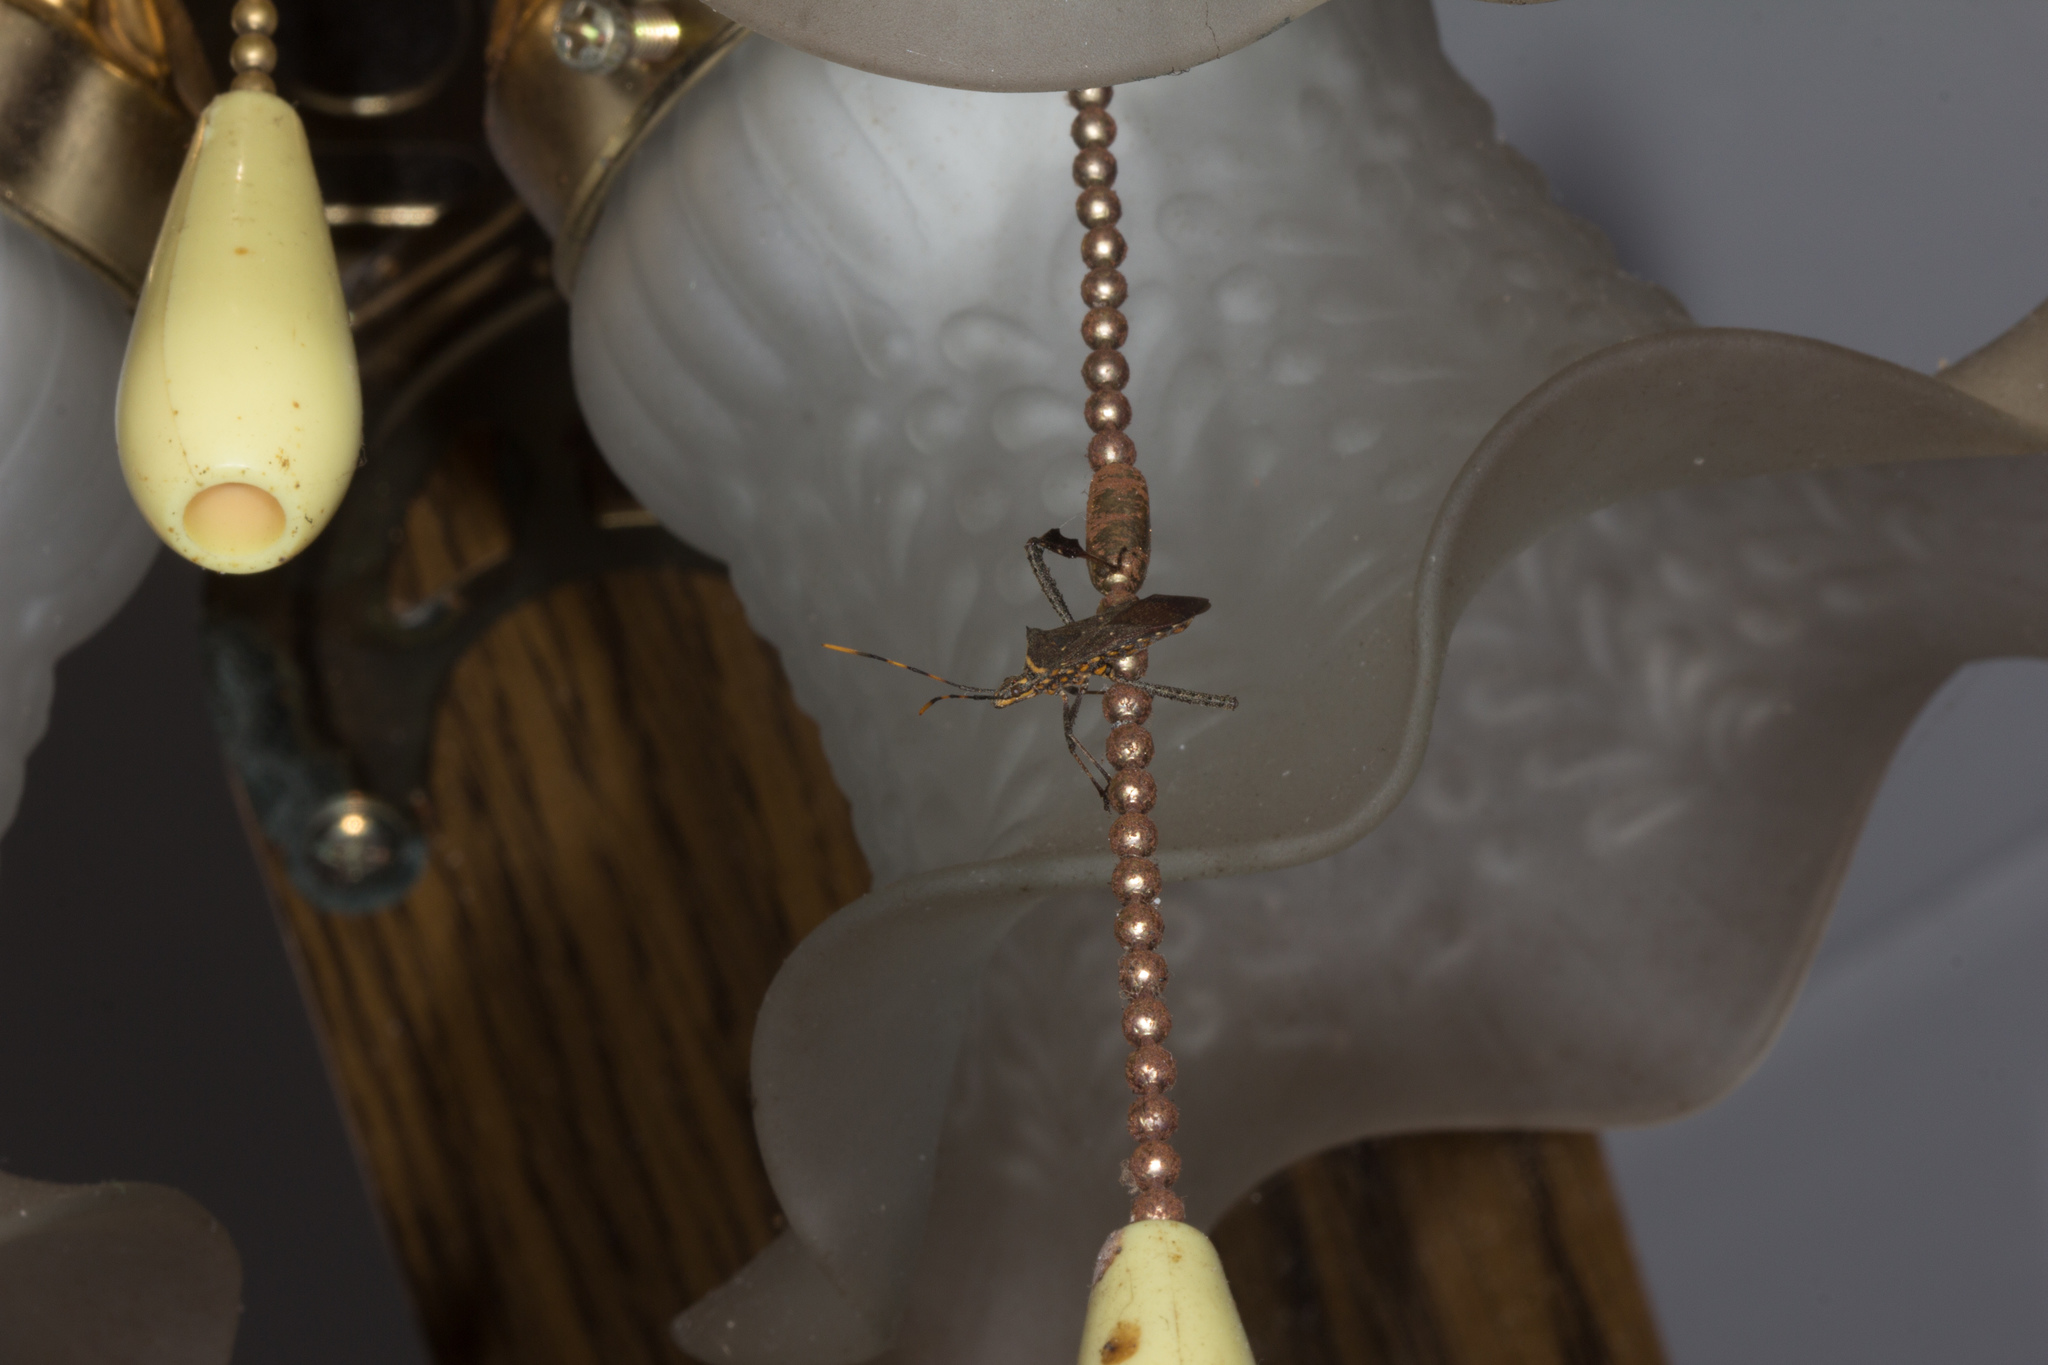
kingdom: Animalia
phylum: Arthropoda
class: Insecta
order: Hemiptera
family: Coreidae
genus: Leptoglossus
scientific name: Leptoglossus gonagra
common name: Citron bug
